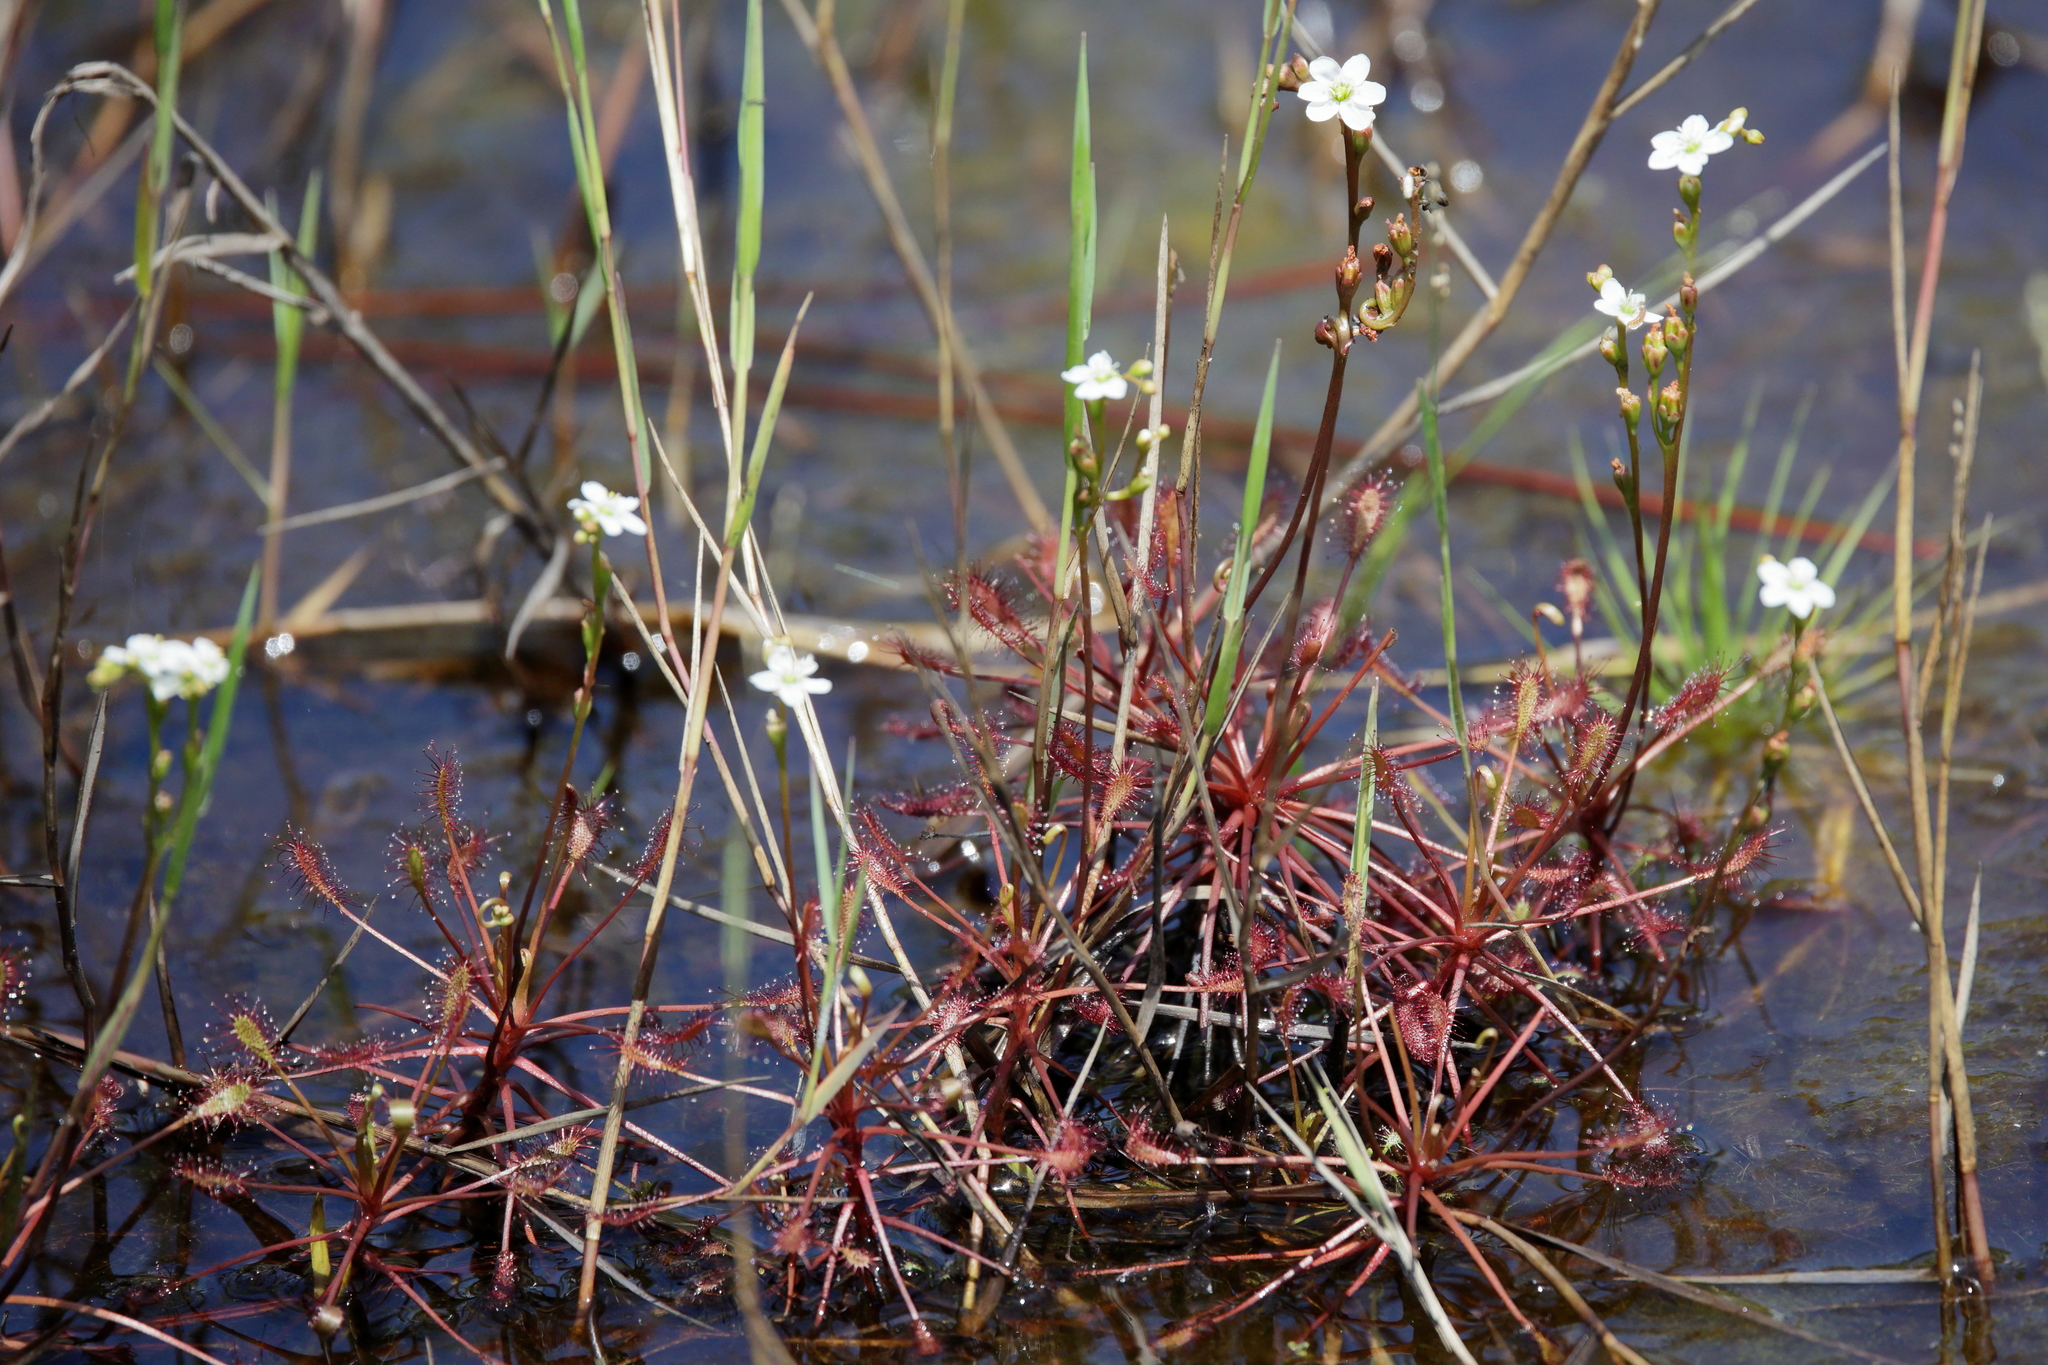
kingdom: Plantae
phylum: Tracheophyta
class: Magnoliopsida
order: Caryophyllales
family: Droseraceae
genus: Drosera
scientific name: Drosera intermedia
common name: Oblong-leaved sundew
